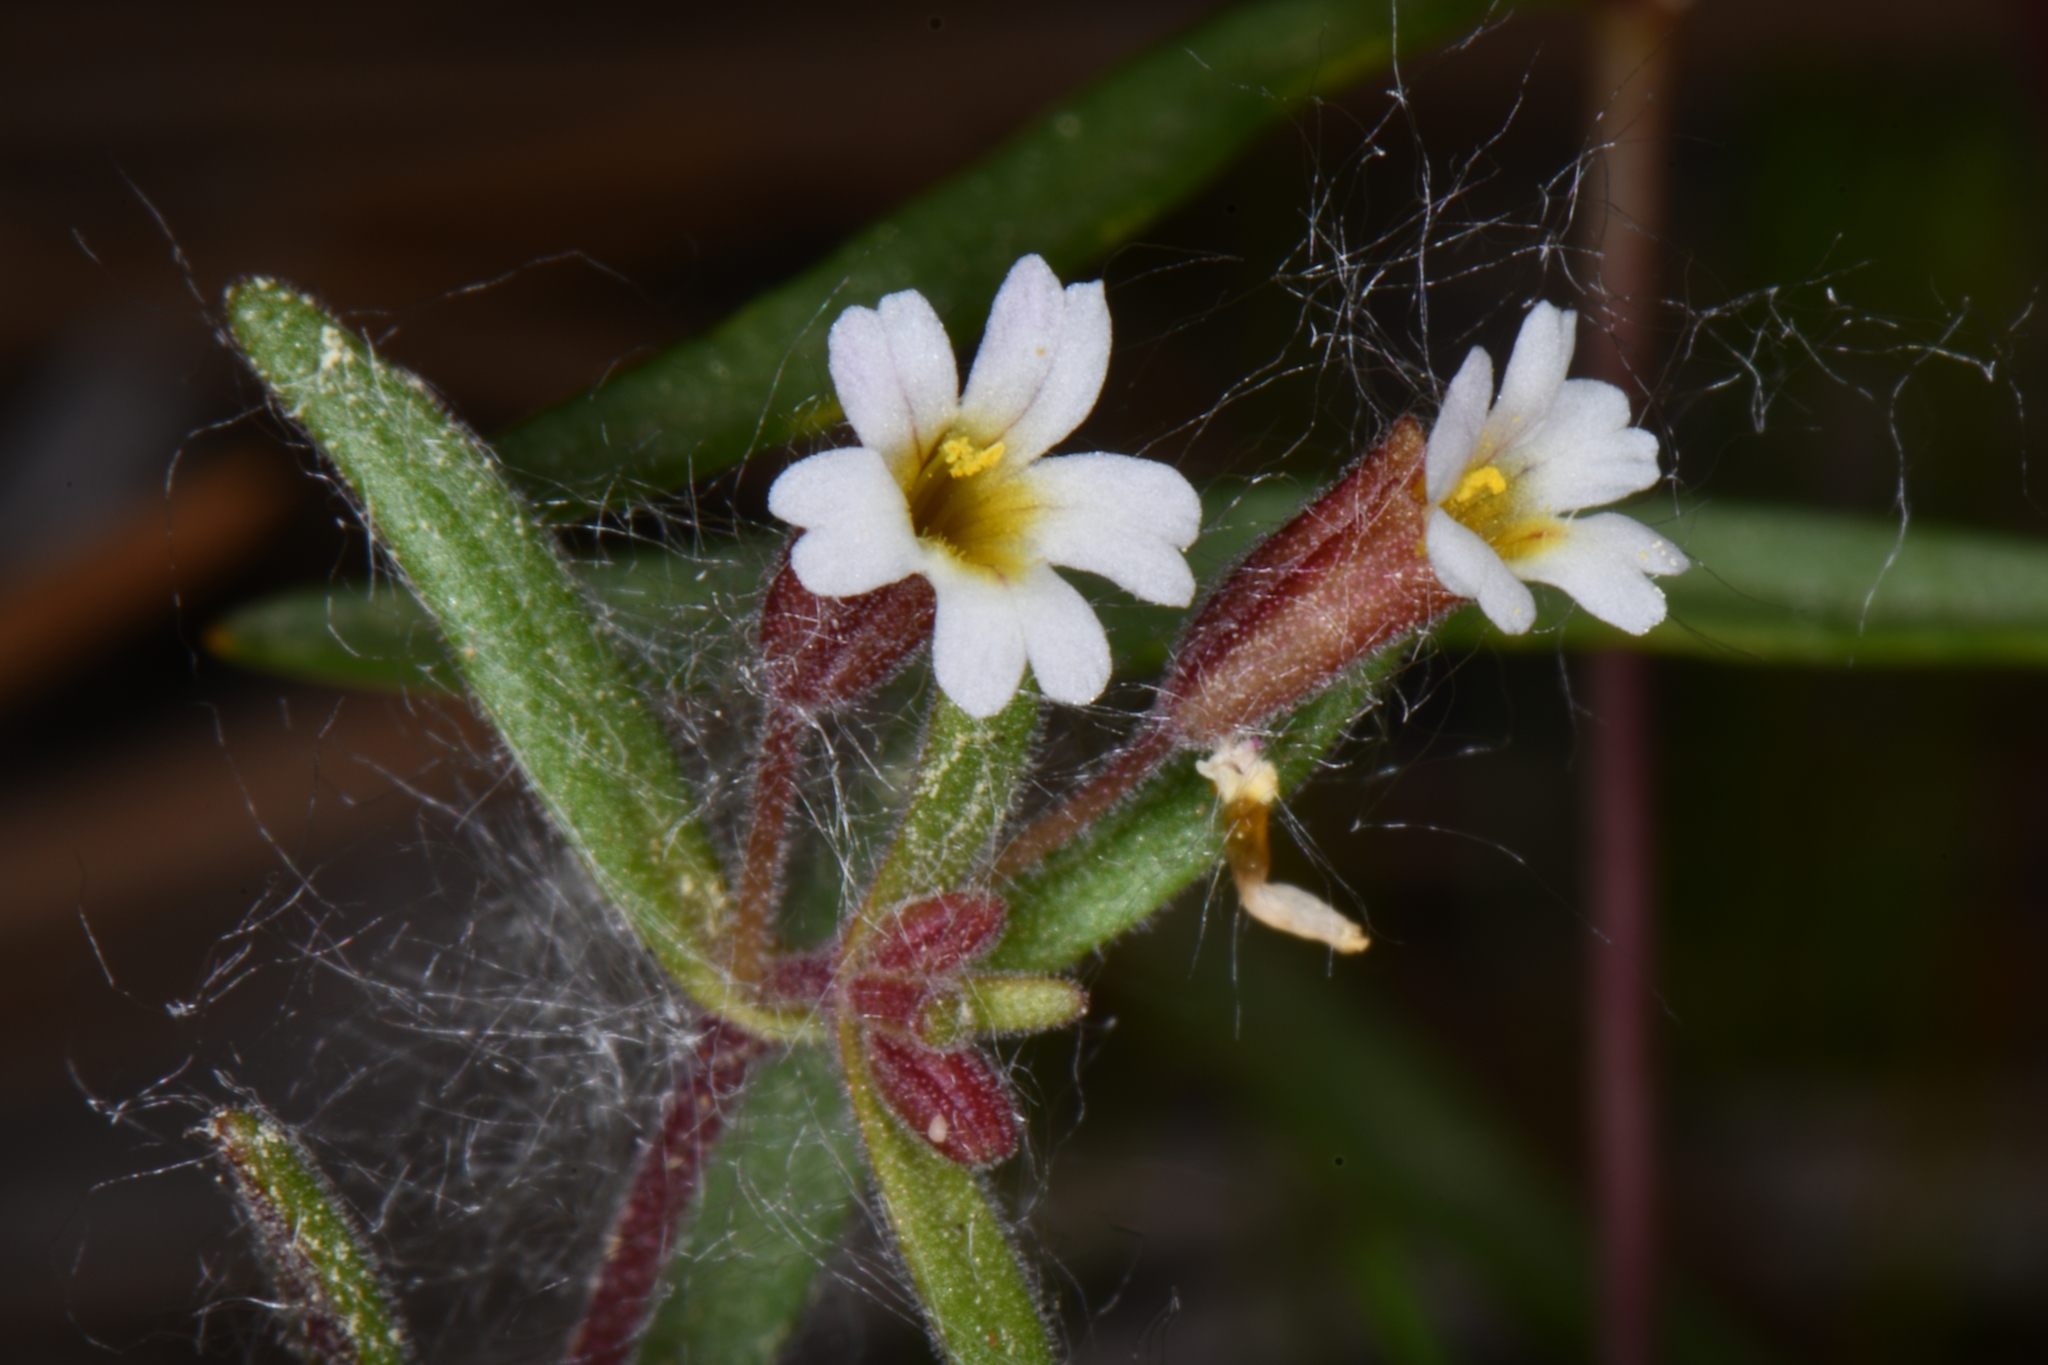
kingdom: Plantae
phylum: Tracheophyta
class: Magnoliopsida
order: Lamiales
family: Phrymaceae
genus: Erythranthe
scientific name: Erythranthe rubella
